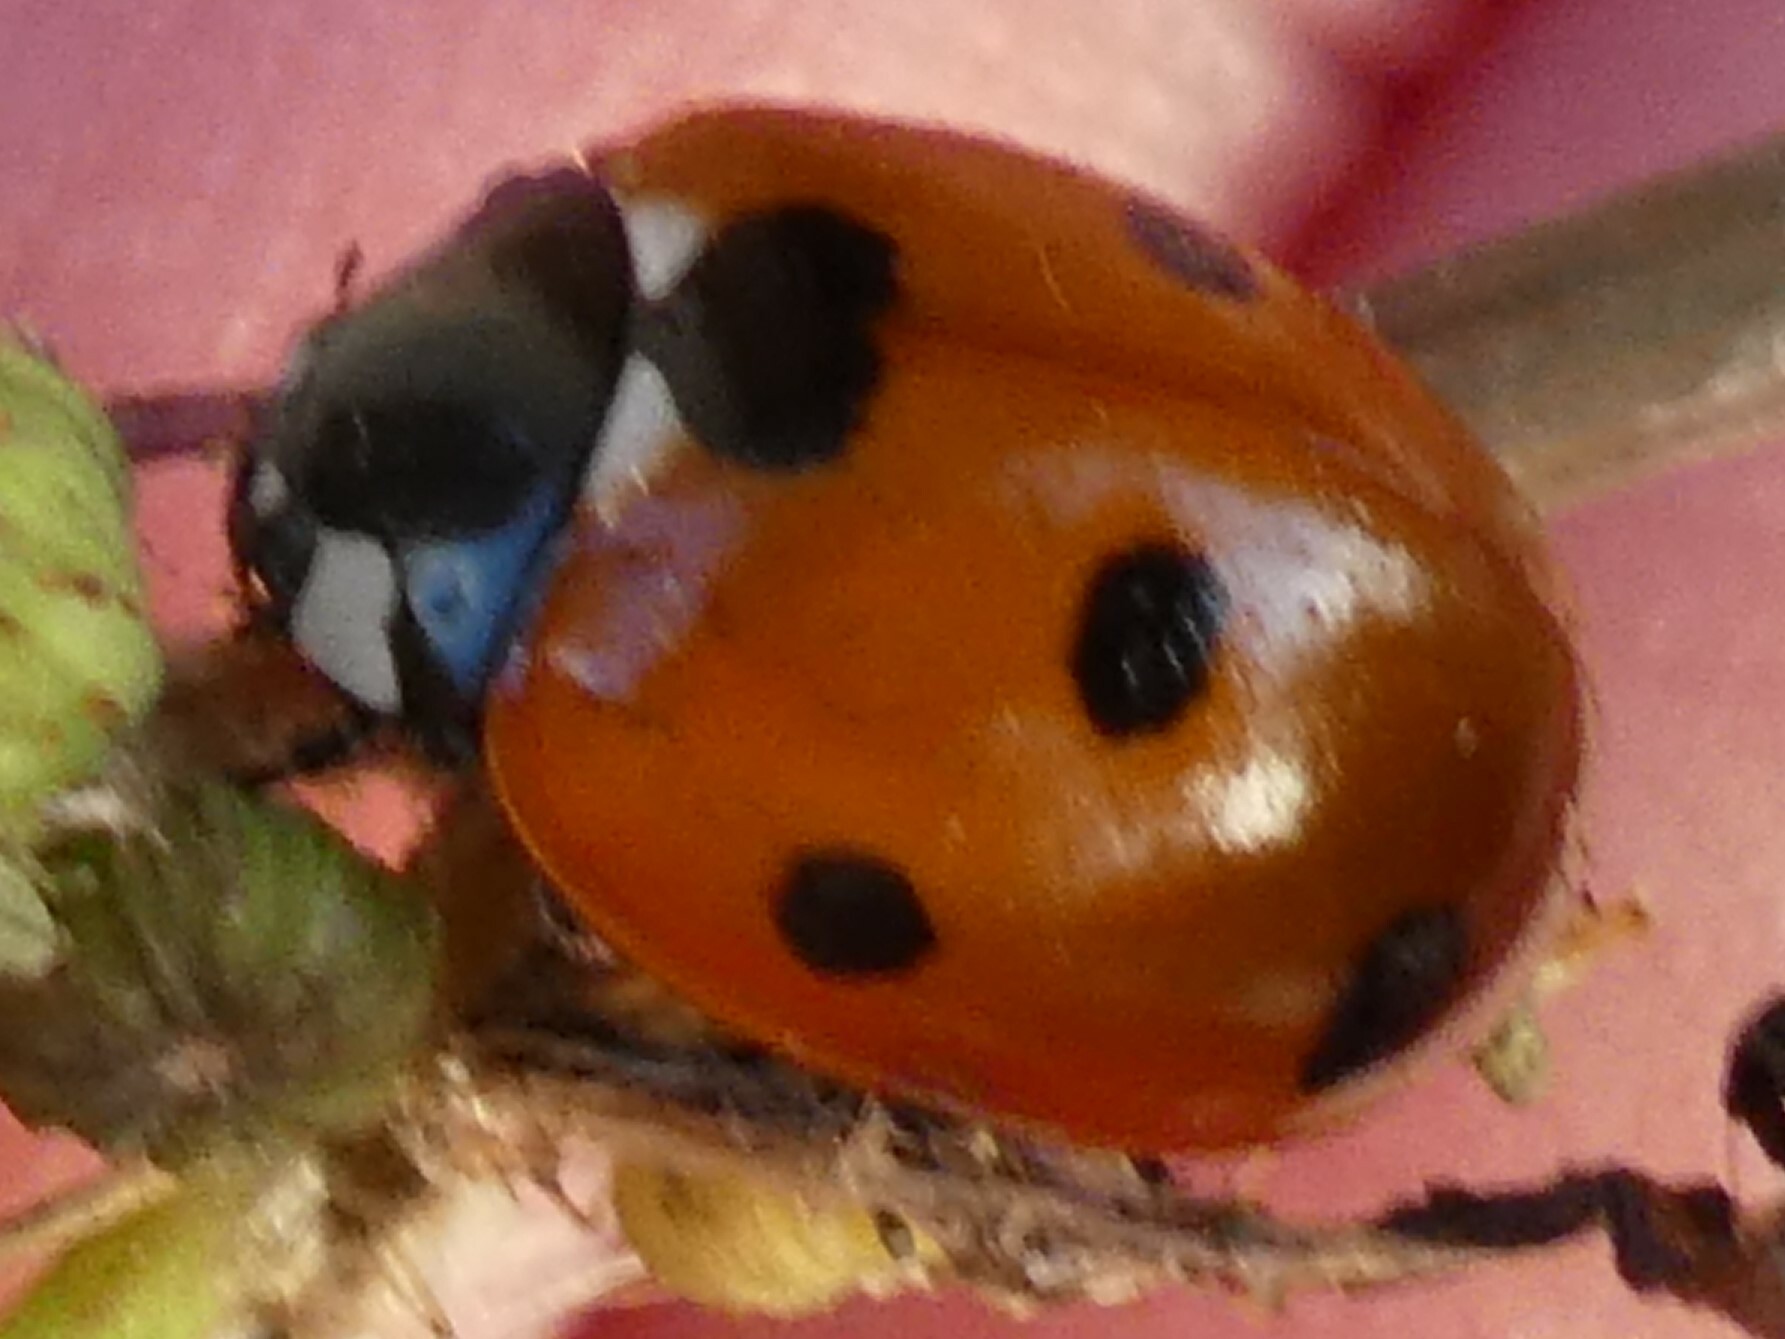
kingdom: Animalia
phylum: Arthropoda
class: Insecta
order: Coleoptera
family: Coccinellidae
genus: Coccinella
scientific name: Coccinella septempunctata
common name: Sevenspotted lady beetle
